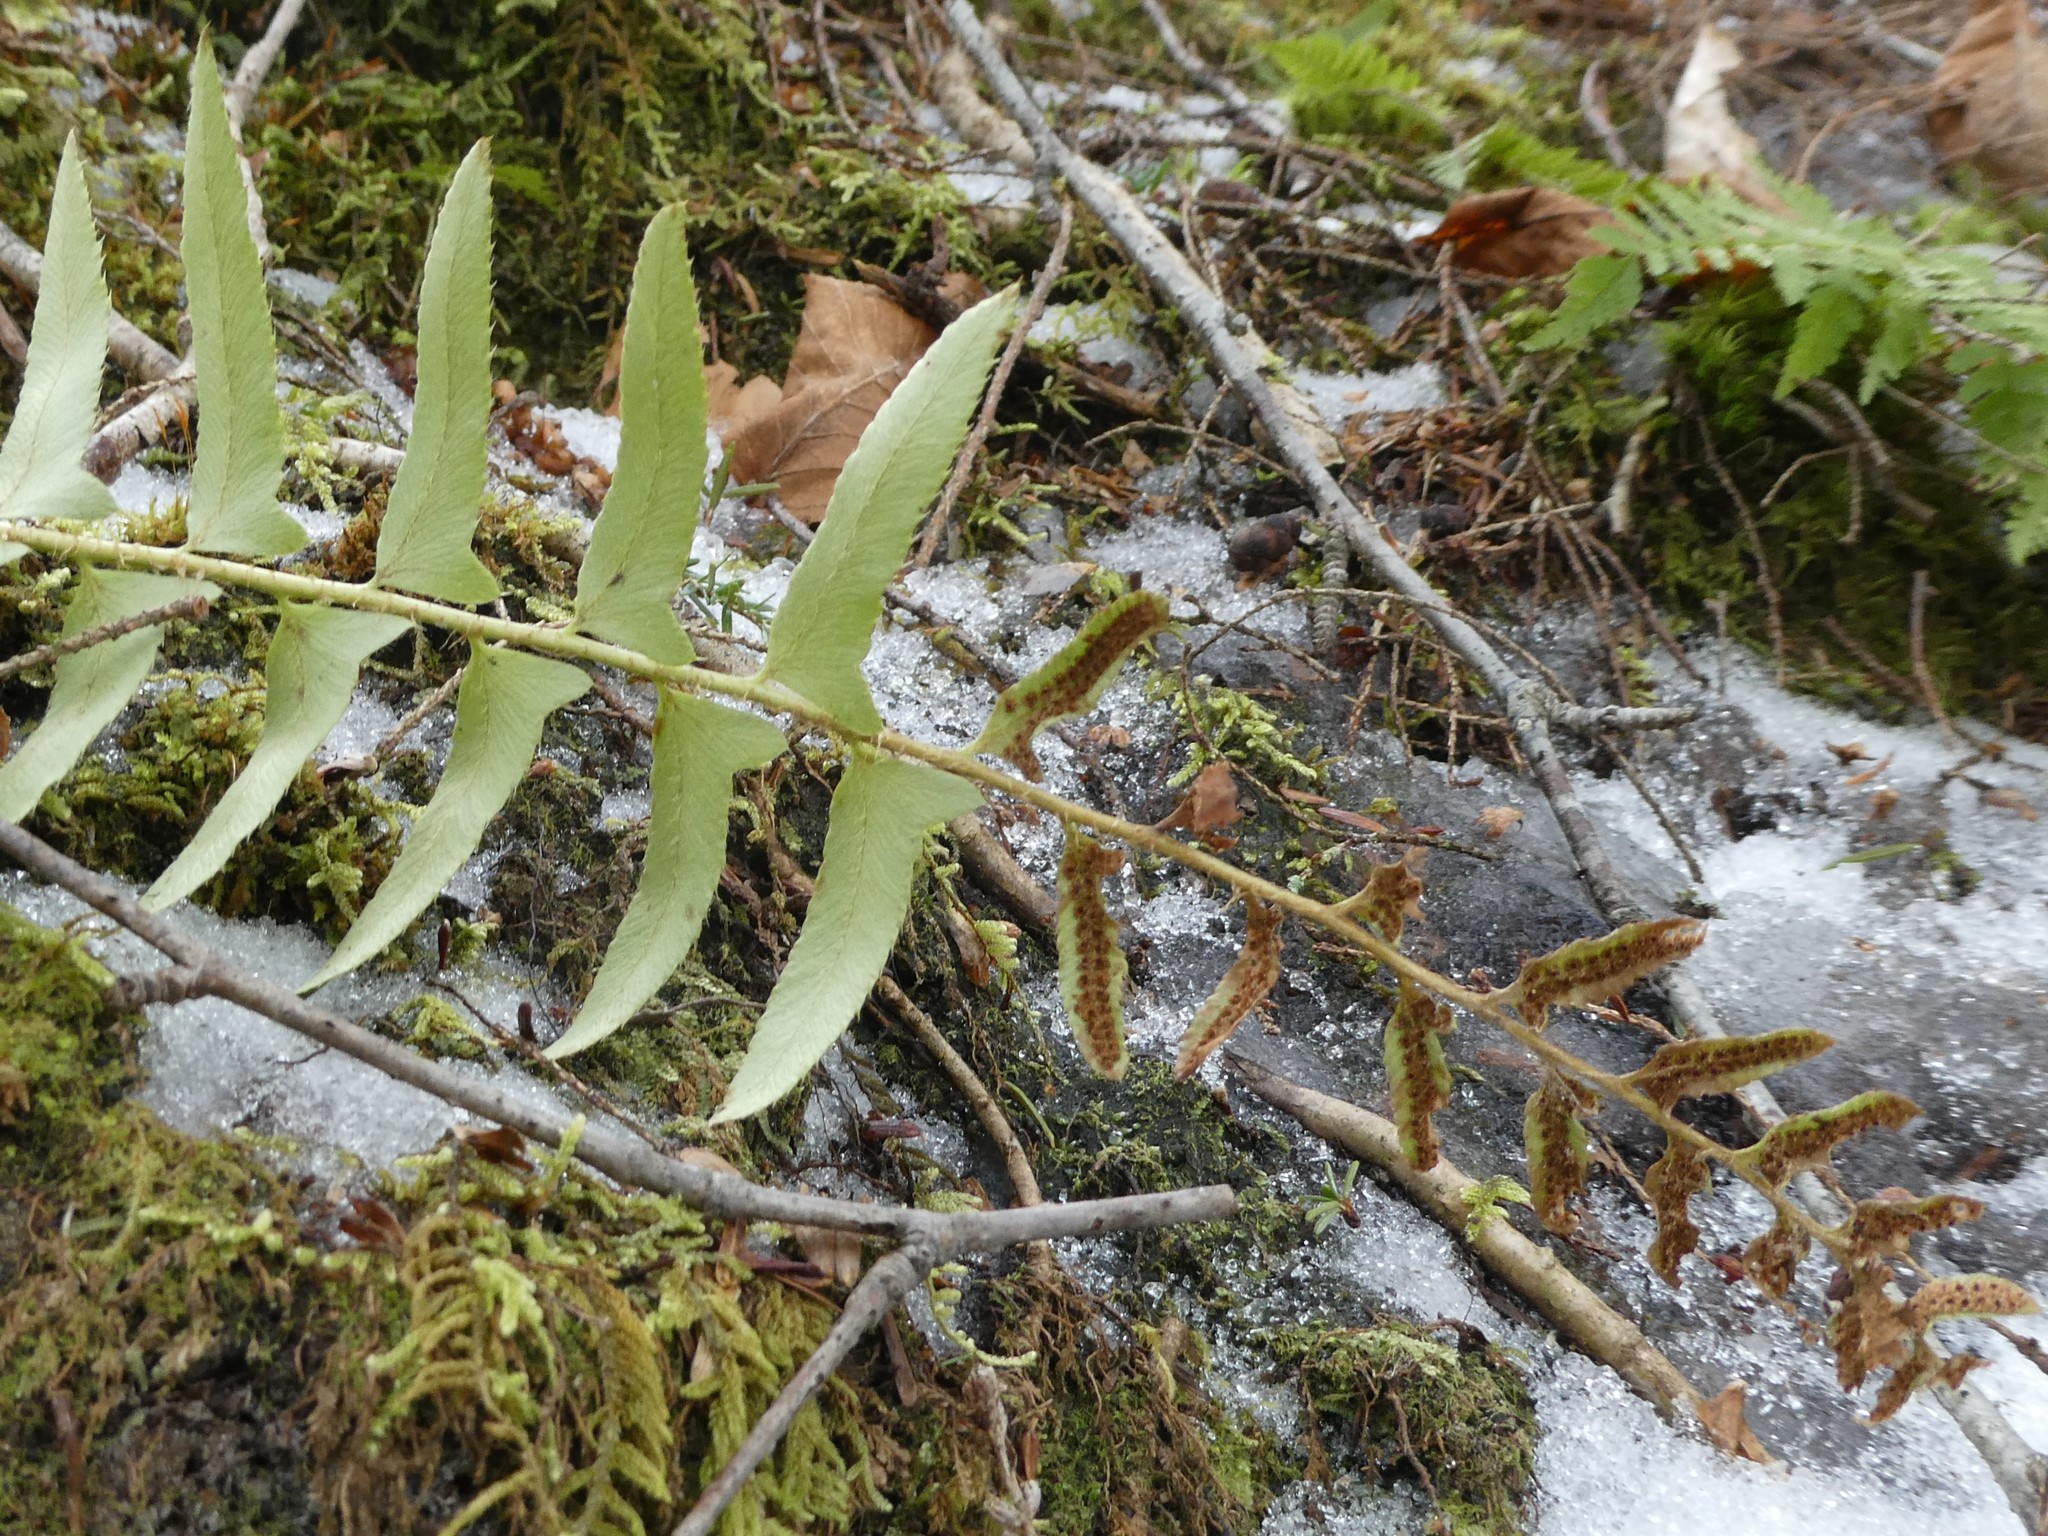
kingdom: Plantae
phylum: Tracheophyta
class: Polypodiopsida
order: Polypodiales
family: Dryopteridaceae
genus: Polystichum
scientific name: Polystichum acrostichoides
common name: Christmas fern
